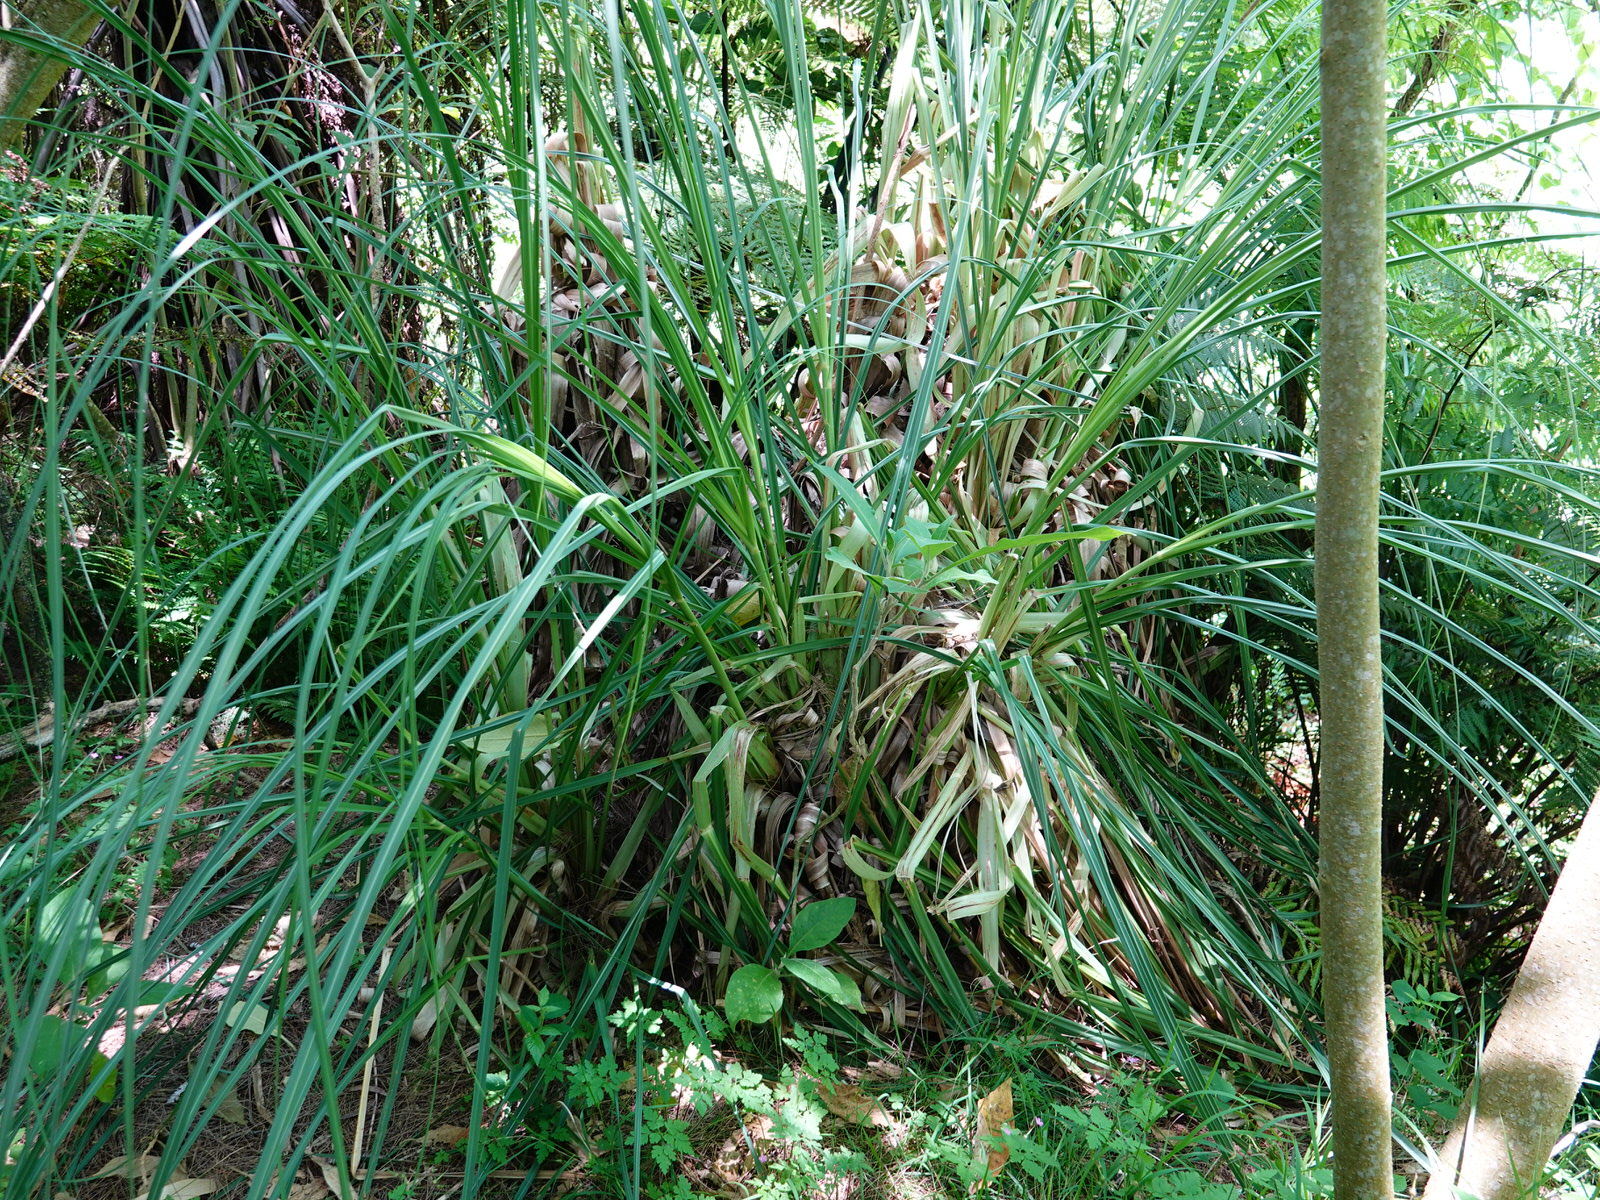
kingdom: Plantae
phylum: Tracheophyta
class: Liliopsida
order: Poales
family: Poaceae
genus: Cortaderia
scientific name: Cortaderia selloana
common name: Uruguayan pampas grass
